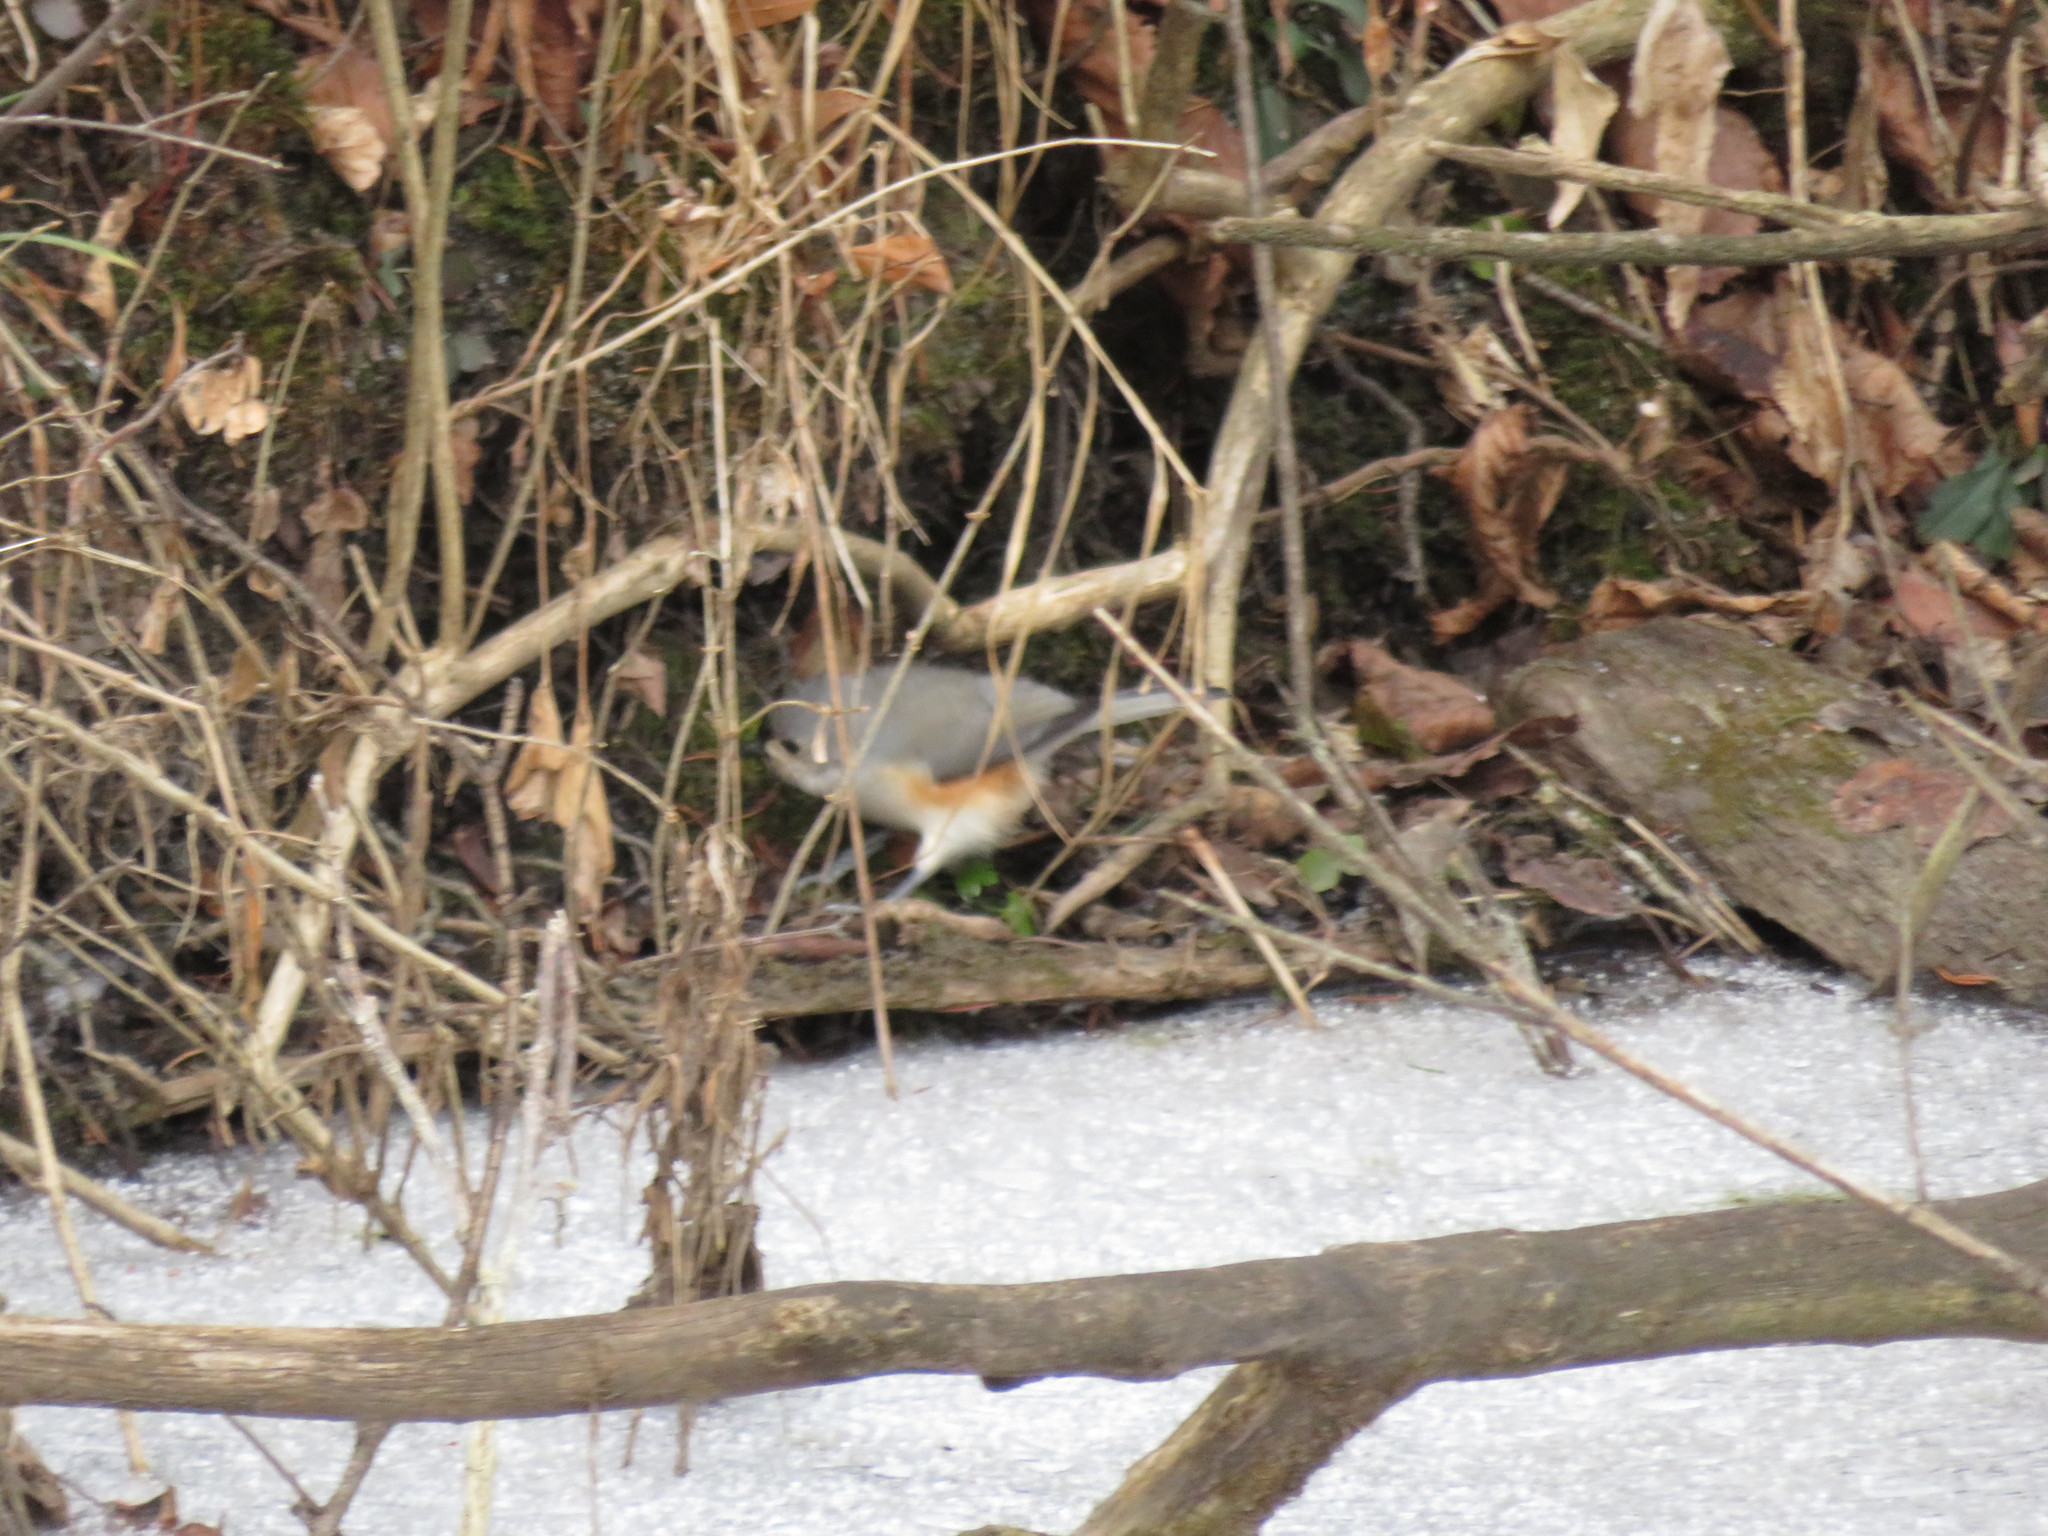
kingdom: Animalia
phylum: Chordata
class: Aves
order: Passeriformes
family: Paridae
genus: Baeolophus
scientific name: Baeolophus bicolor
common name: Tufted titmouse
